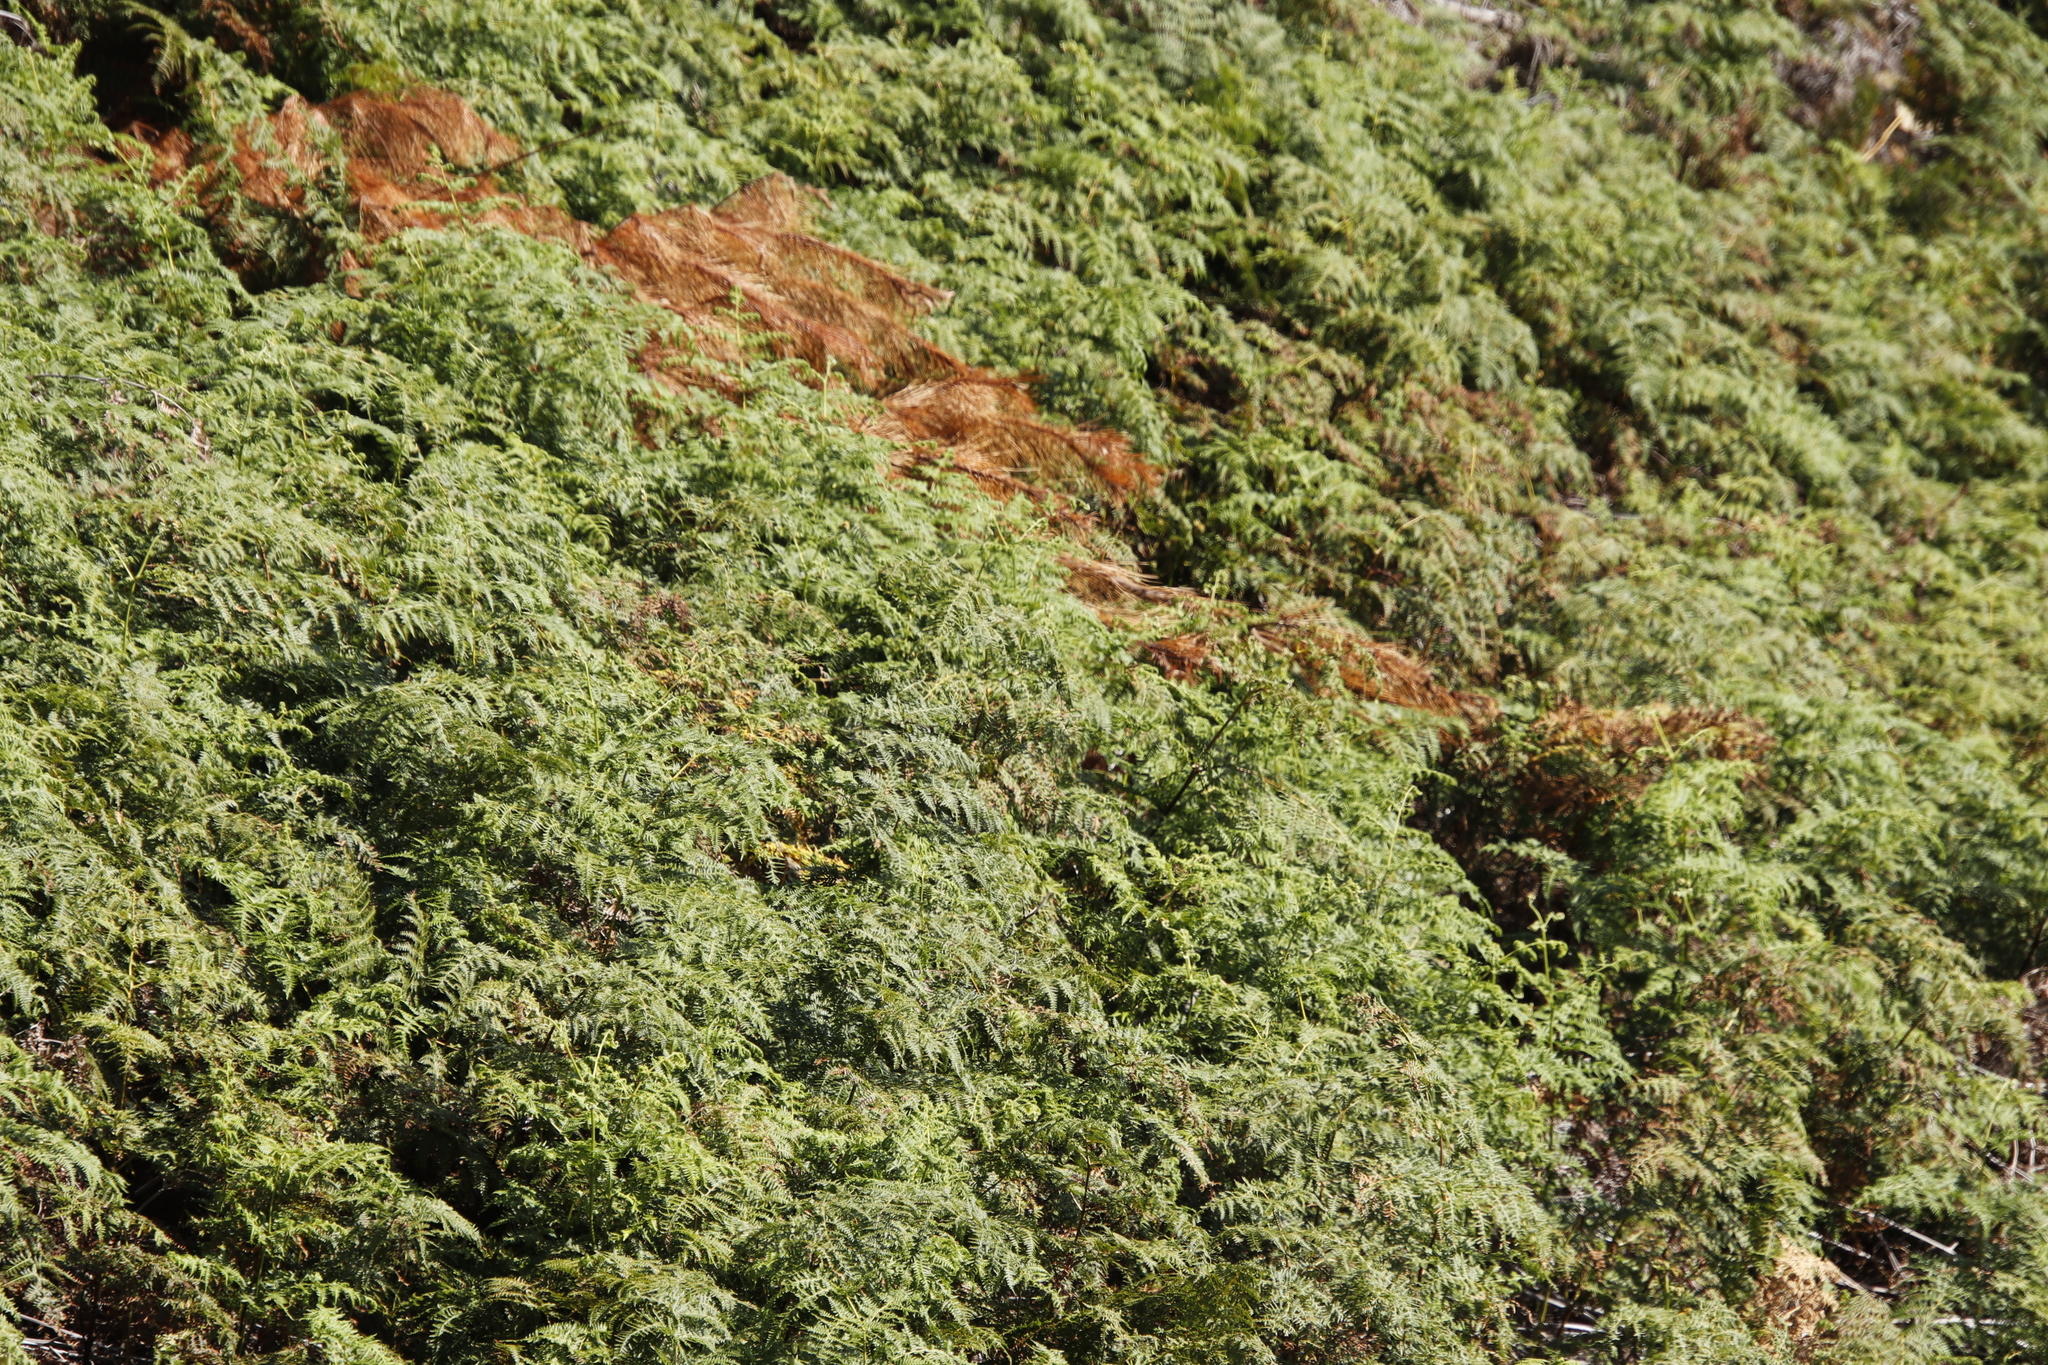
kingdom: Plantae
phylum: Tracheophyta
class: Polypodiopsida
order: Polypodiales
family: Dennstaedtiaceae
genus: Pteridium
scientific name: Pteridium aquilinum
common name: Bracken
